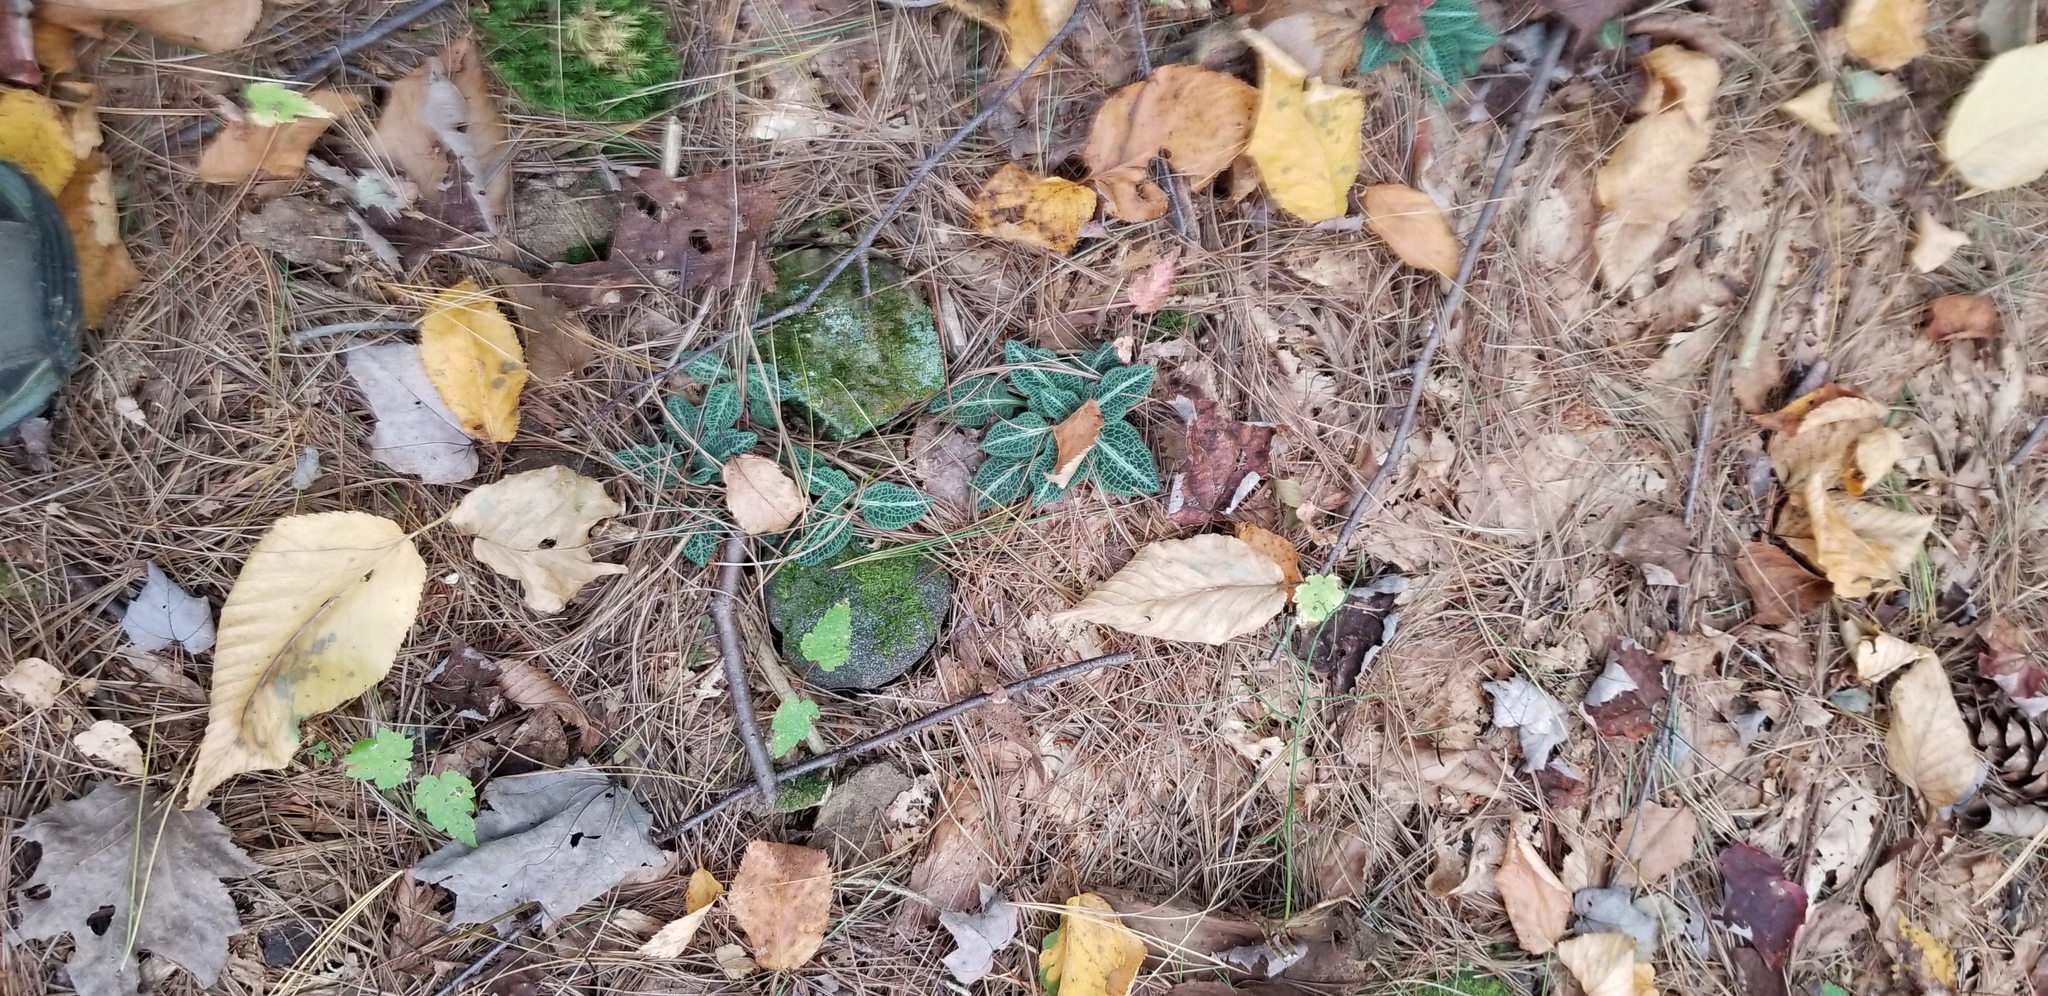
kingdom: Plantae
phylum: Tracheophyta
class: Liliopsida
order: Asparagales
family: Orchidaceae
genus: Goodyera
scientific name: Goodyera pubescens
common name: Downy rattlesnake-plantain
